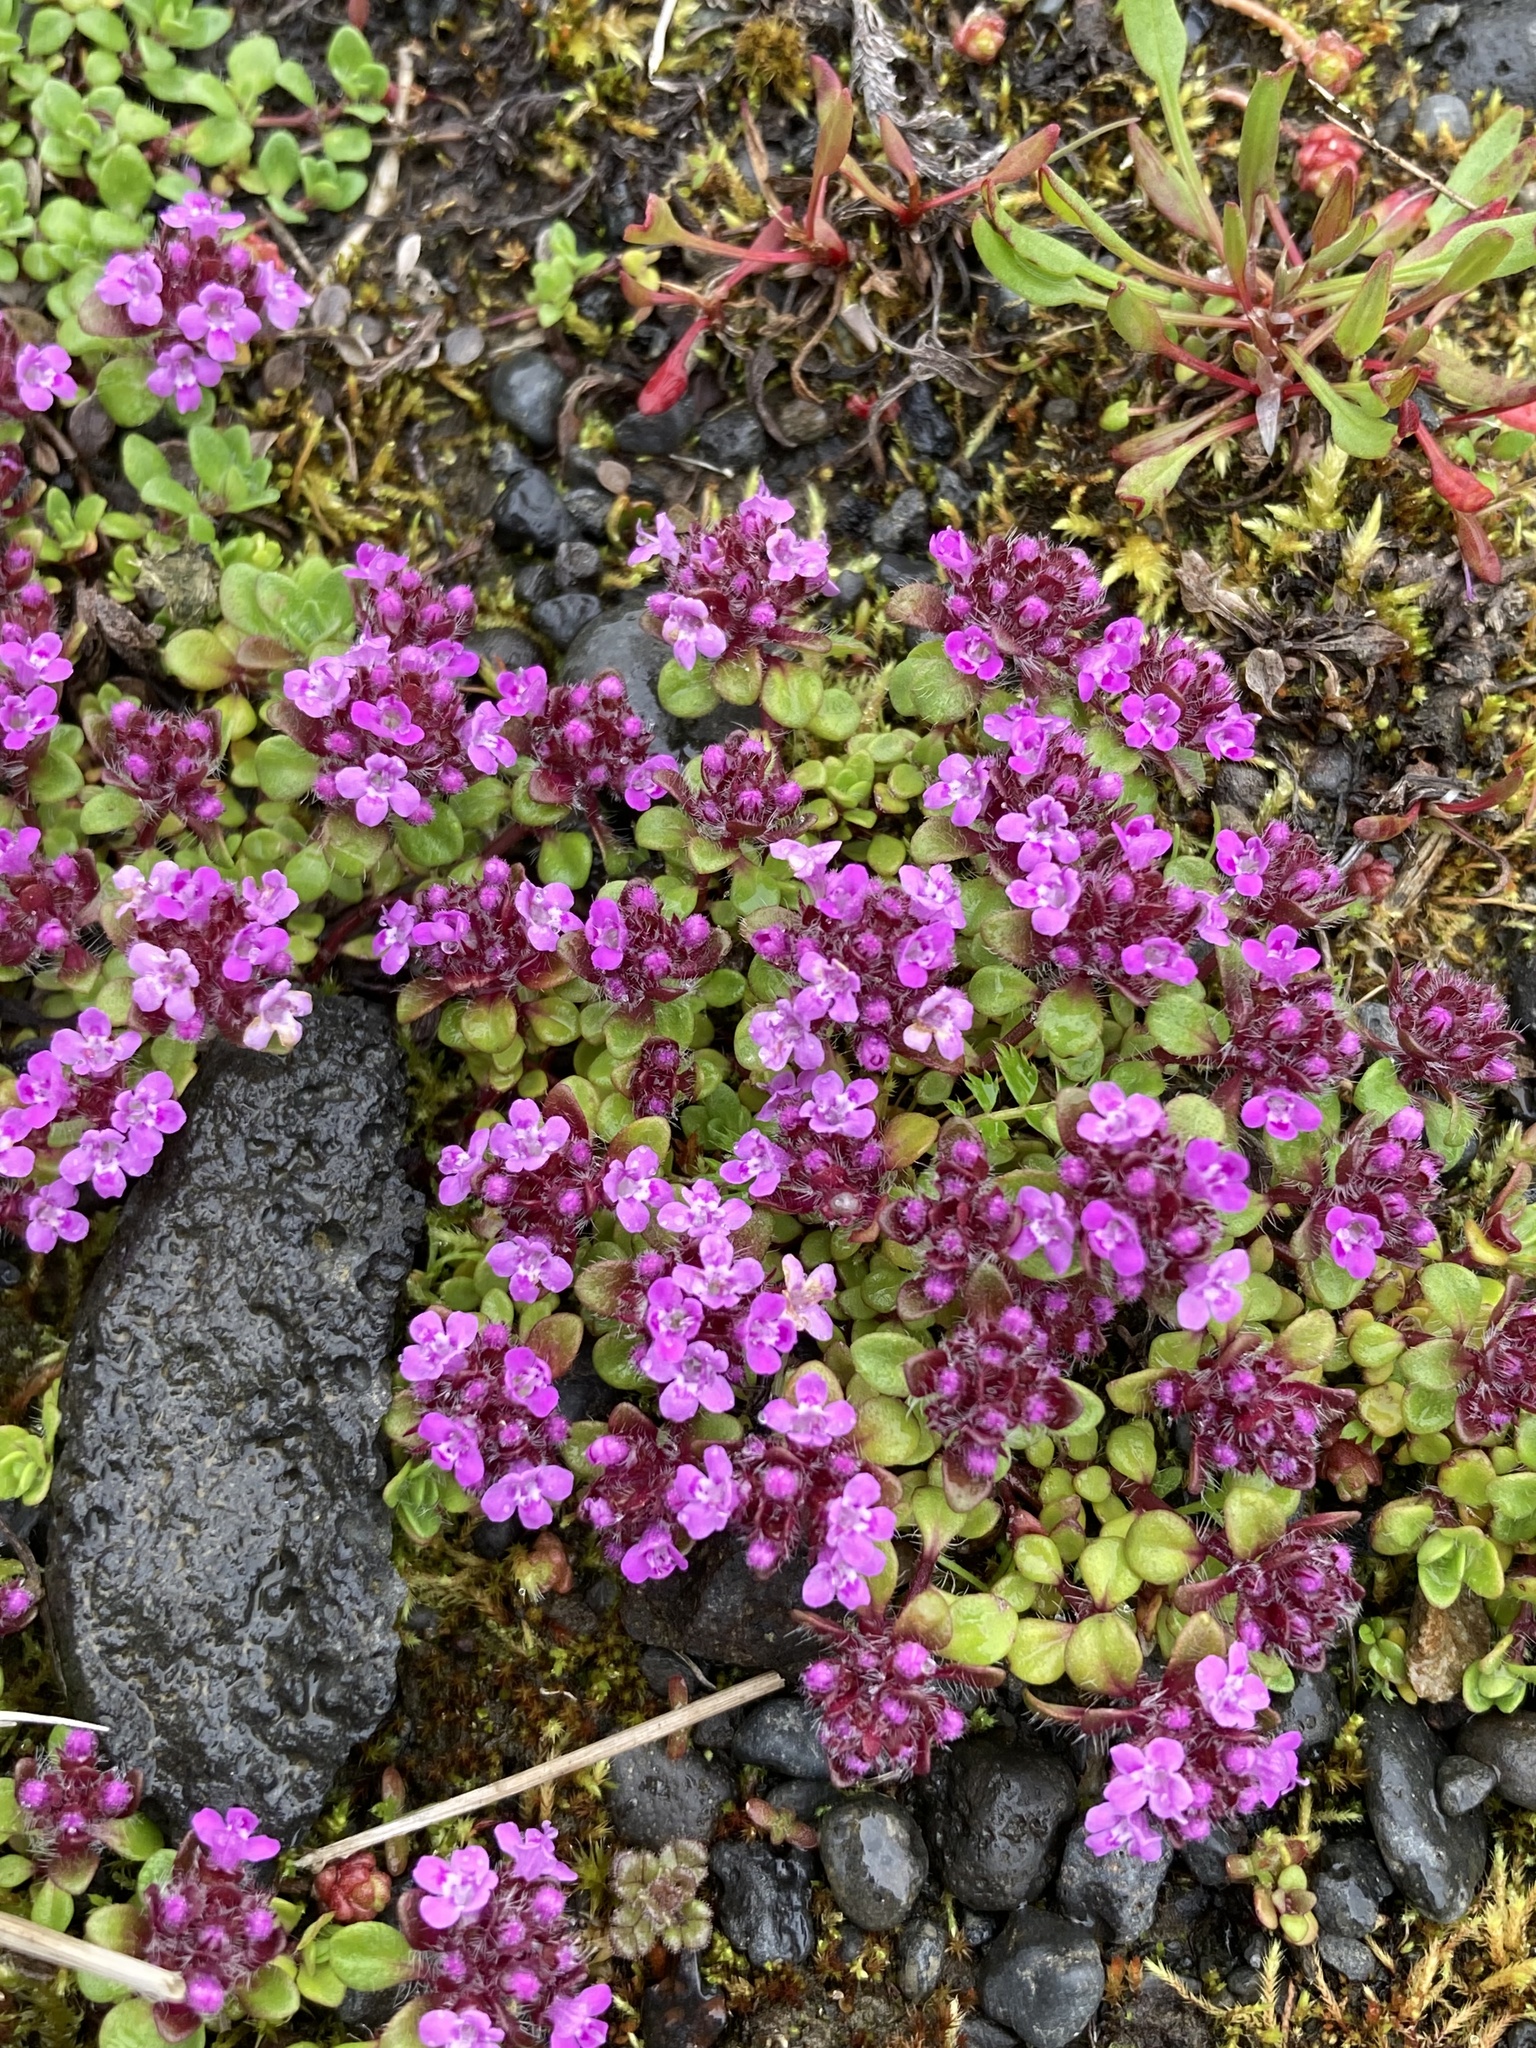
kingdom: Plantae
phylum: Tracheophyta
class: Magnoliopsida
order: Lamiales
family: Lamiaceae
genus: Thymus
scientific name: Thymus praecox
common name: Wild thyme
